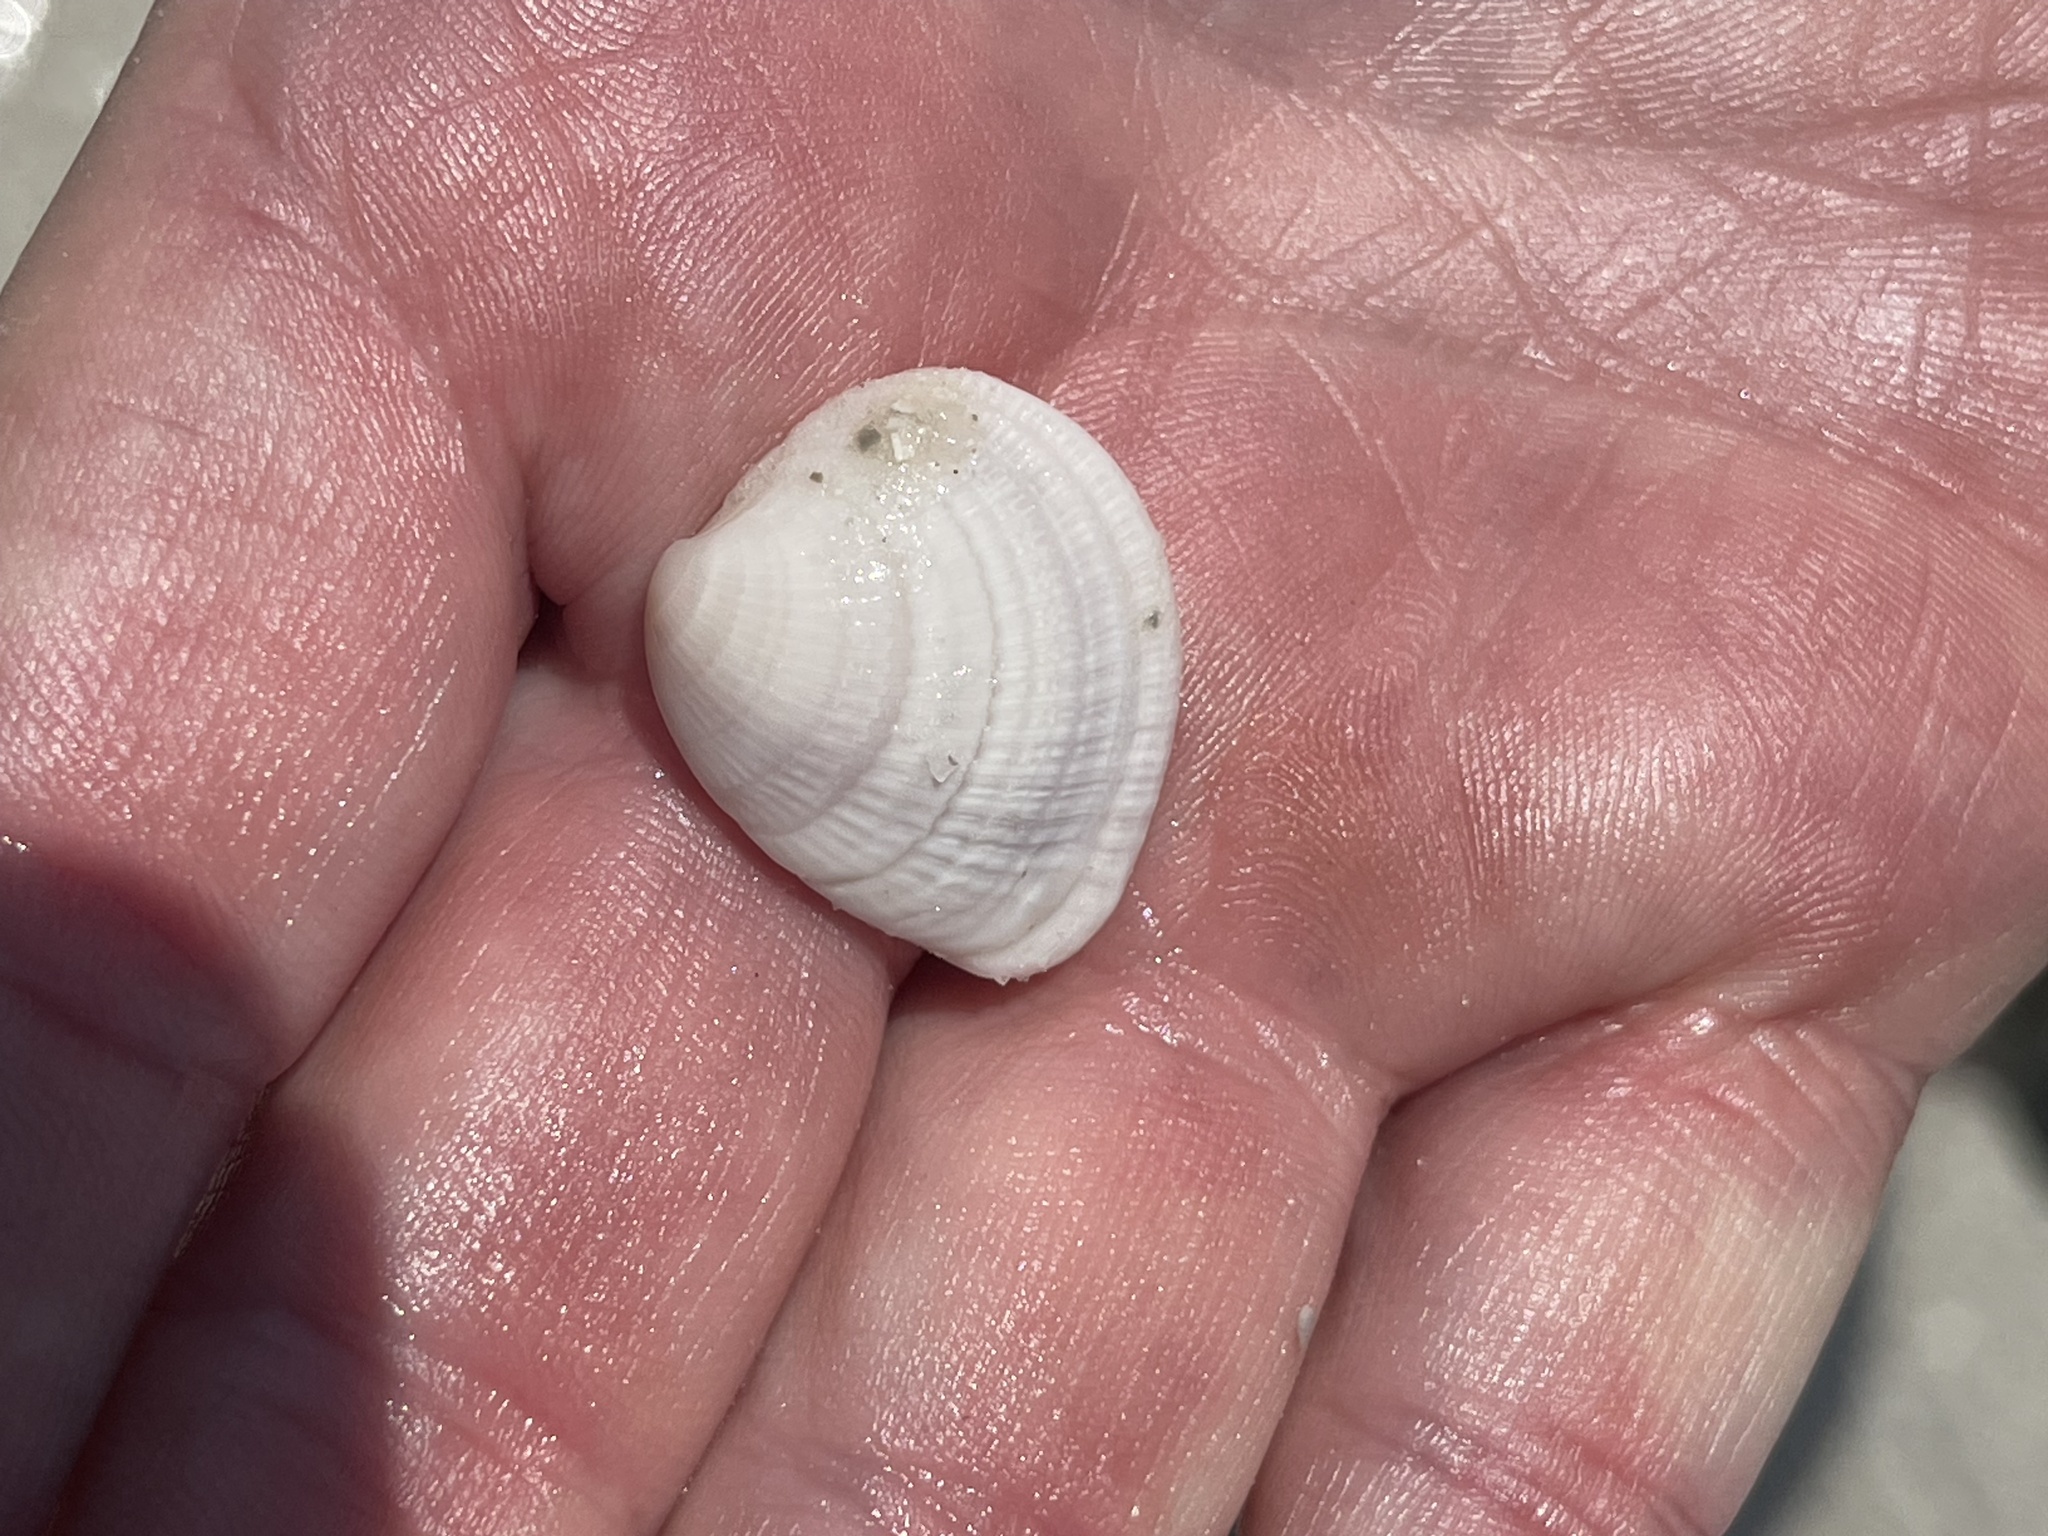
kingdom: Animalia
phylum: Mollusca
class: Bivalvia
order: Venerida
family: Veneridae
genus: Chione
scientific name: Chione elevata
